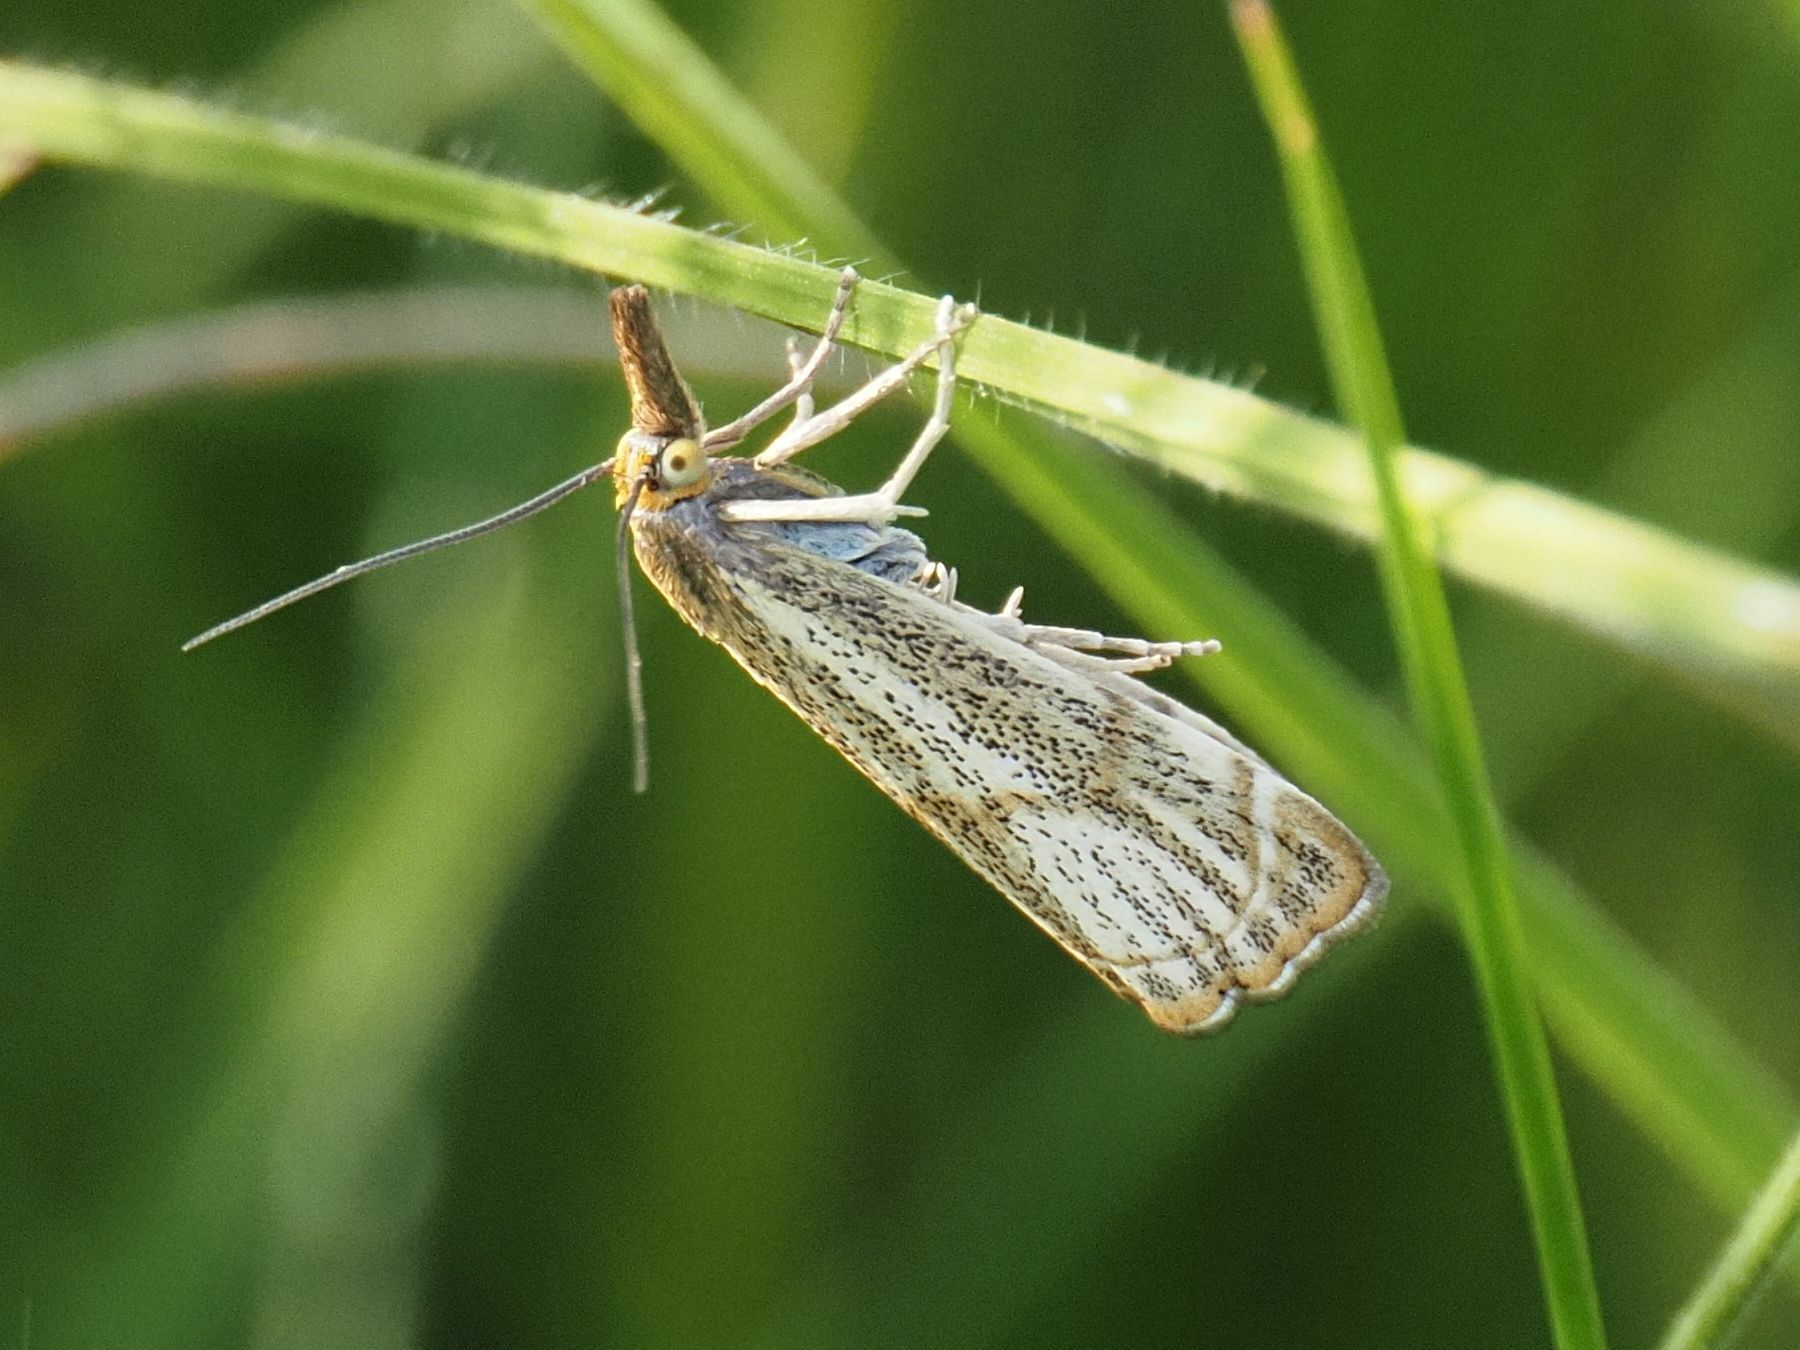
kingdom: Animalia
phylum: Arthropoda
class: Insecta
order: Lepidoptera
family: Crambidae
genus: Thisanotia
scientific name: Thisanotia chrysonuchella
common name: Powdered grass-veneer
